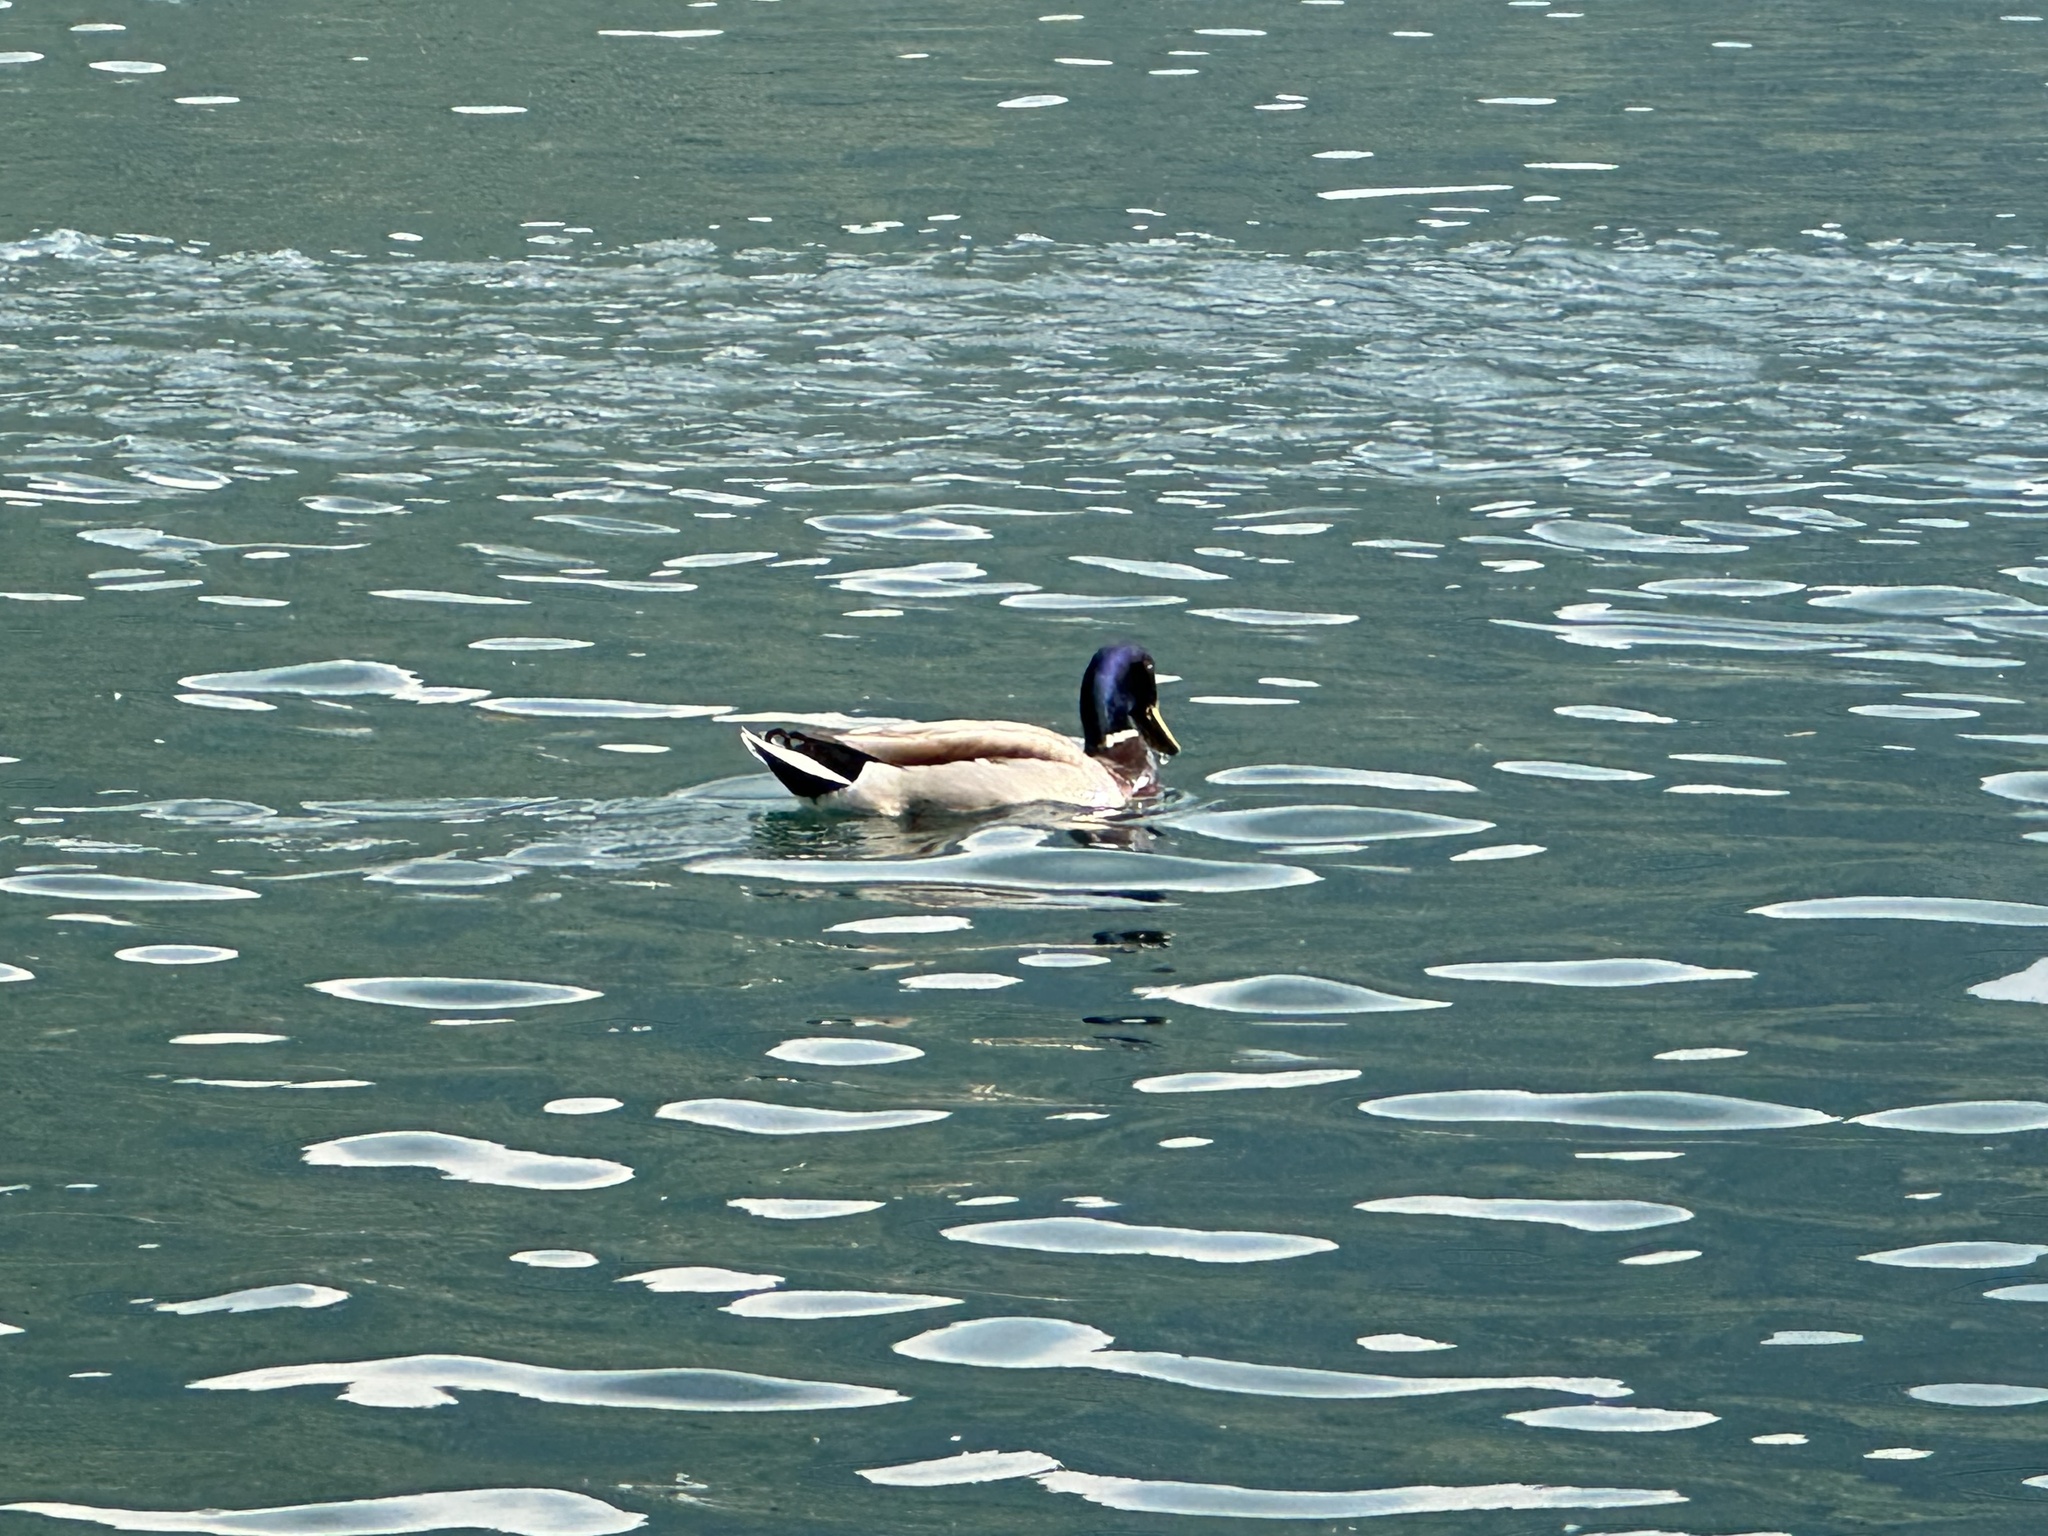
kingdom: Animalia
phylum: Chordata
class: Aves
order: Anseriformes
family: Anatidae
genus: Anas
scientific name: Anas platyrhynchos
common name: Mallard
